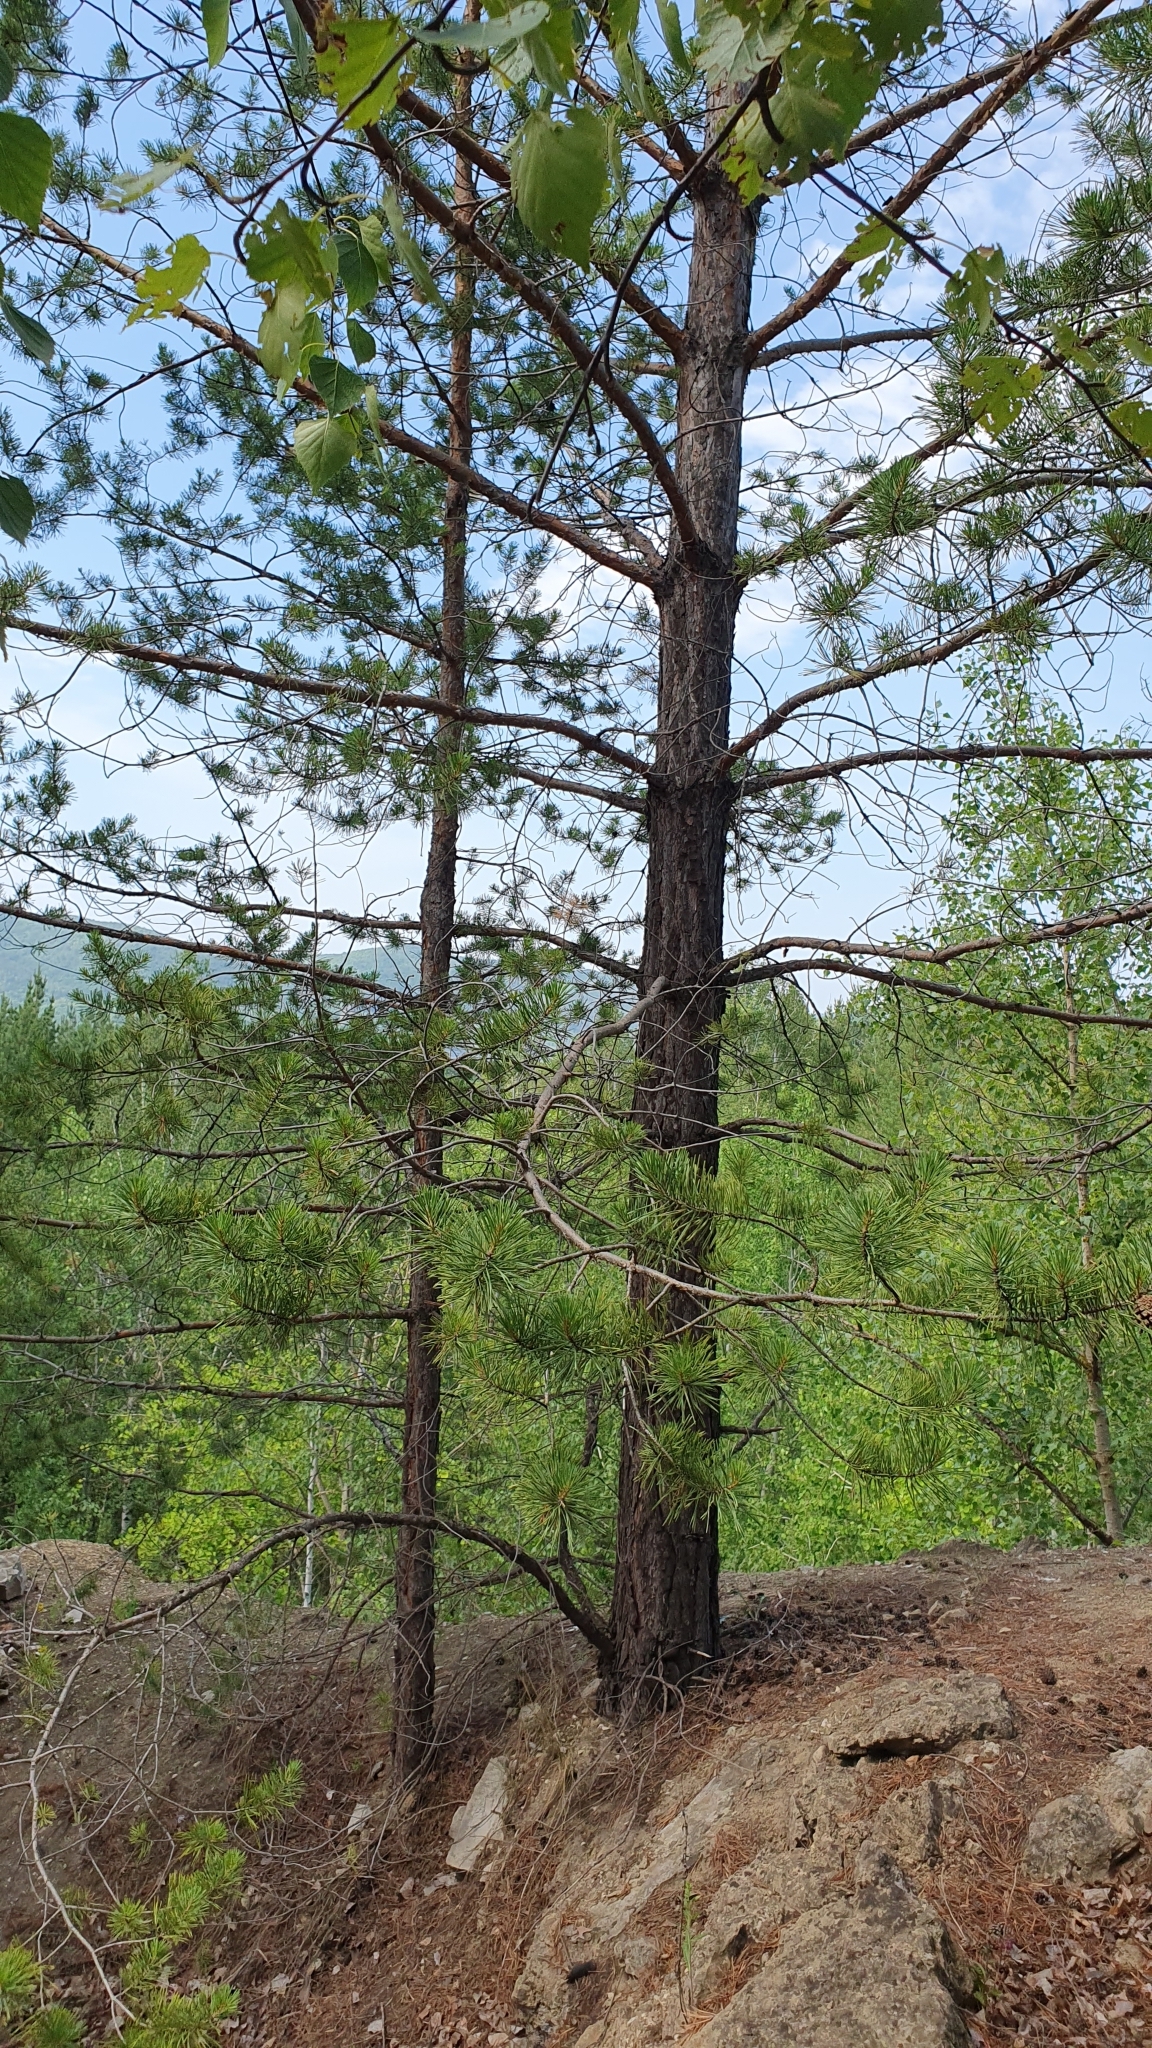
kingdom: Plantae
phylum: Tracheophyta
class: Pinopsida
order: Pinales
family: Pinaceae
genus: Pinus
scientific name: Pinus sylvestris
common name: Scots pine
